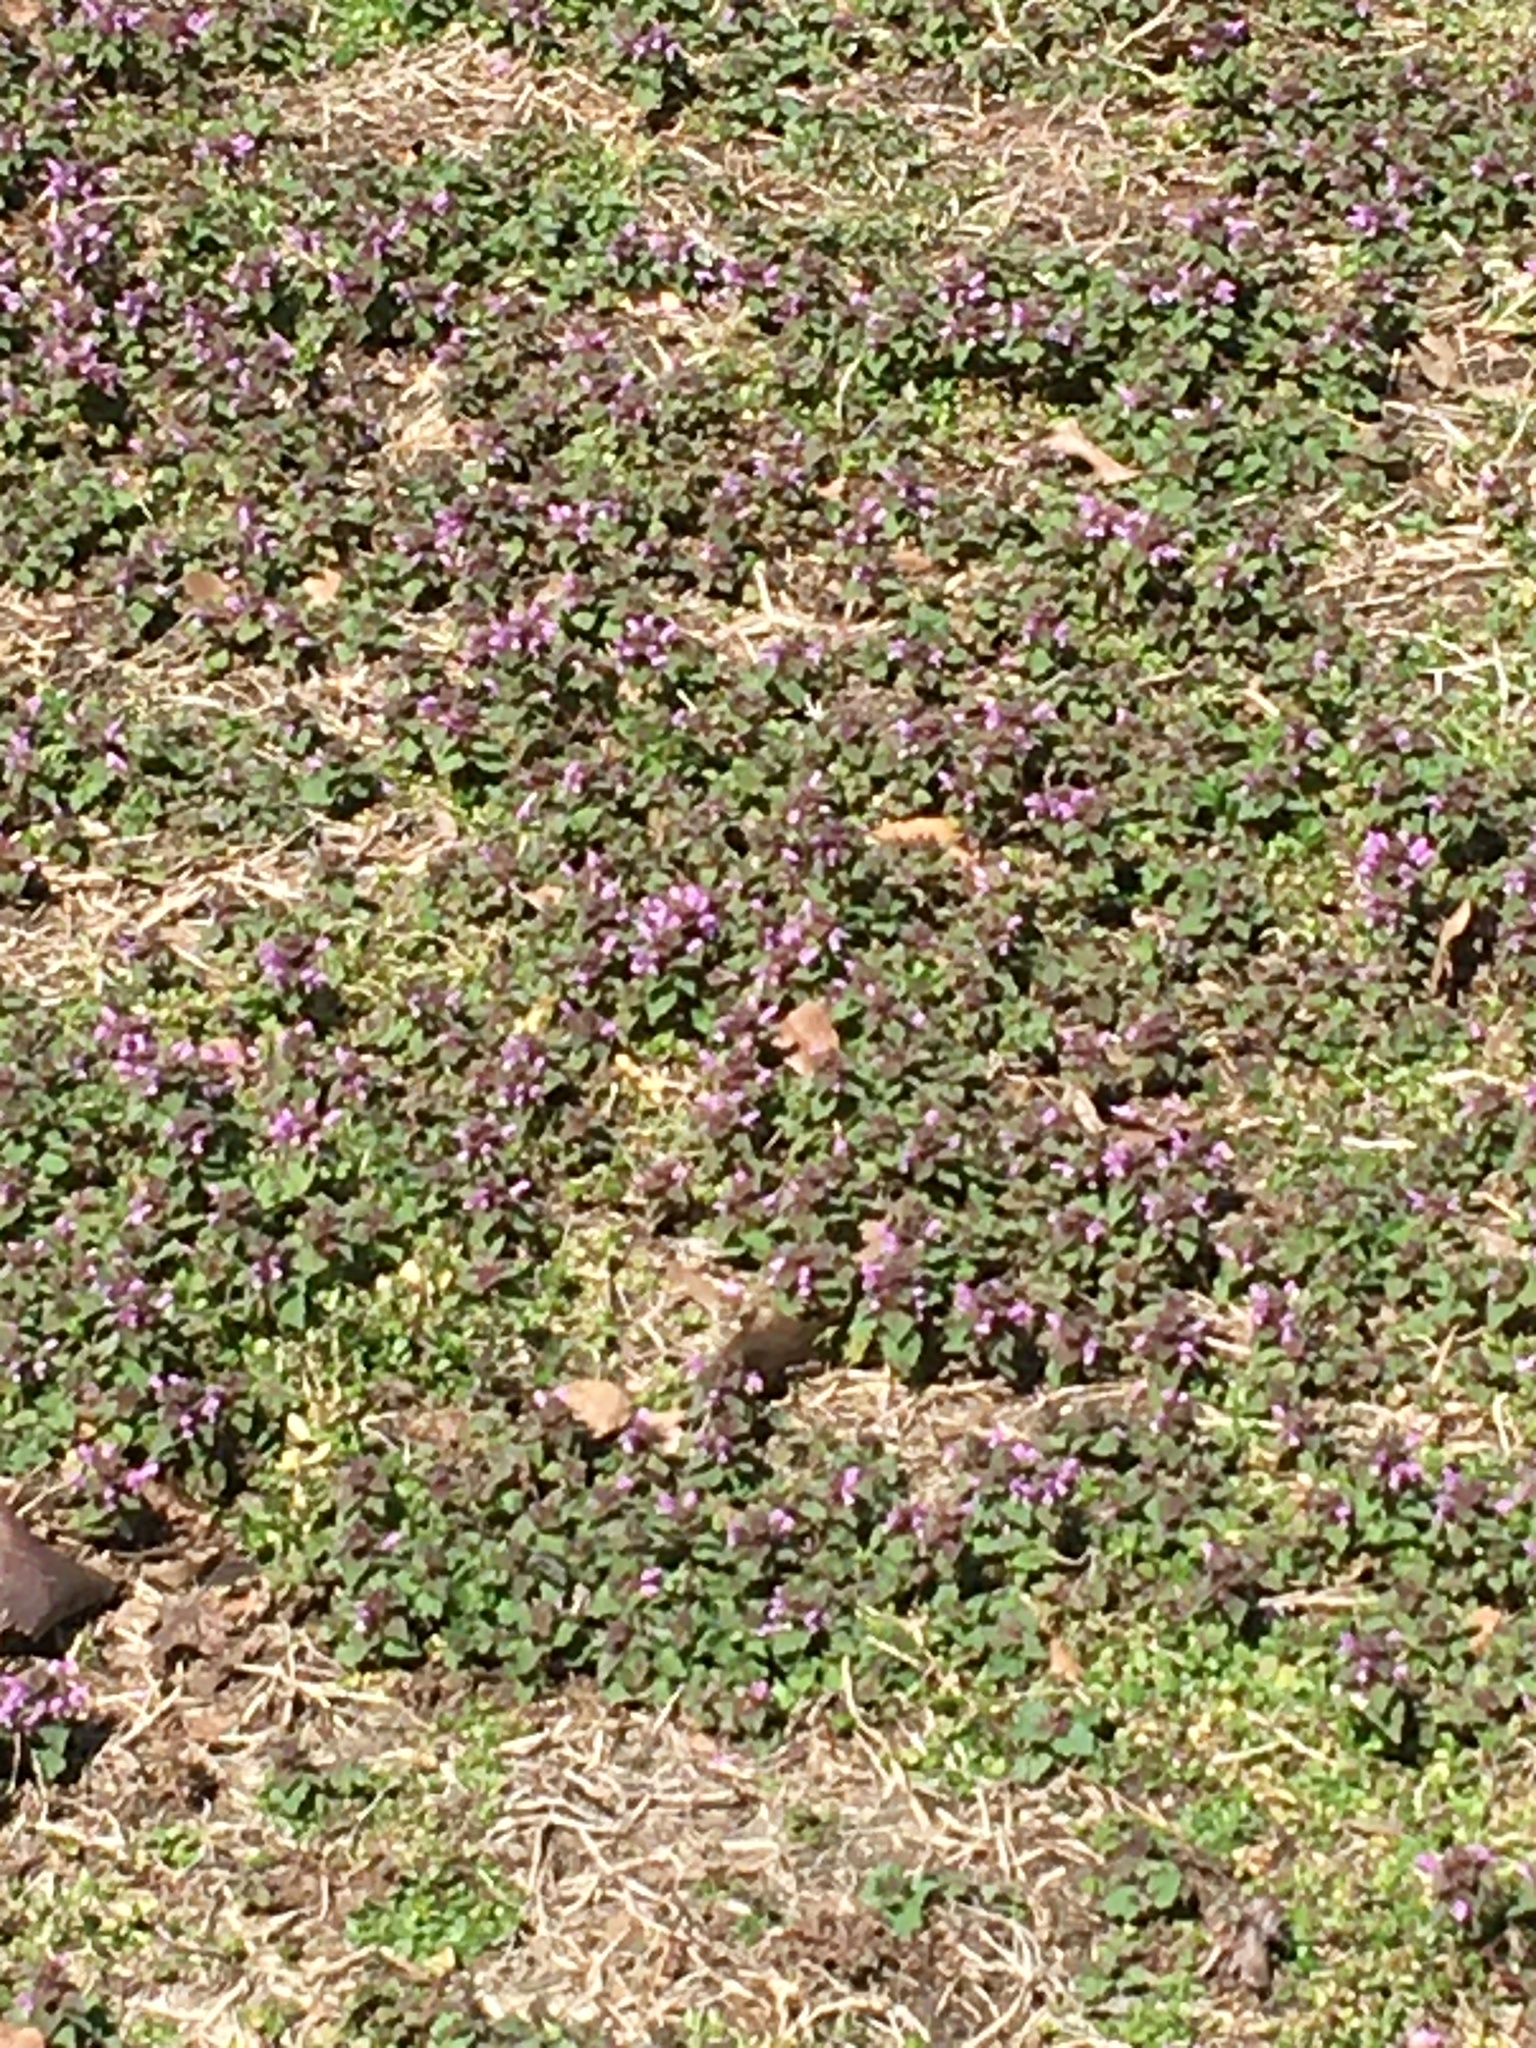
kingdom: Plantae
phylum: Tracheophyta
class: Magnoliopsida
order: Lamiales
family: Lamiaceae
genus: Lamium
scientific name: Lamium purpureum
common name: Red dead-nettle
